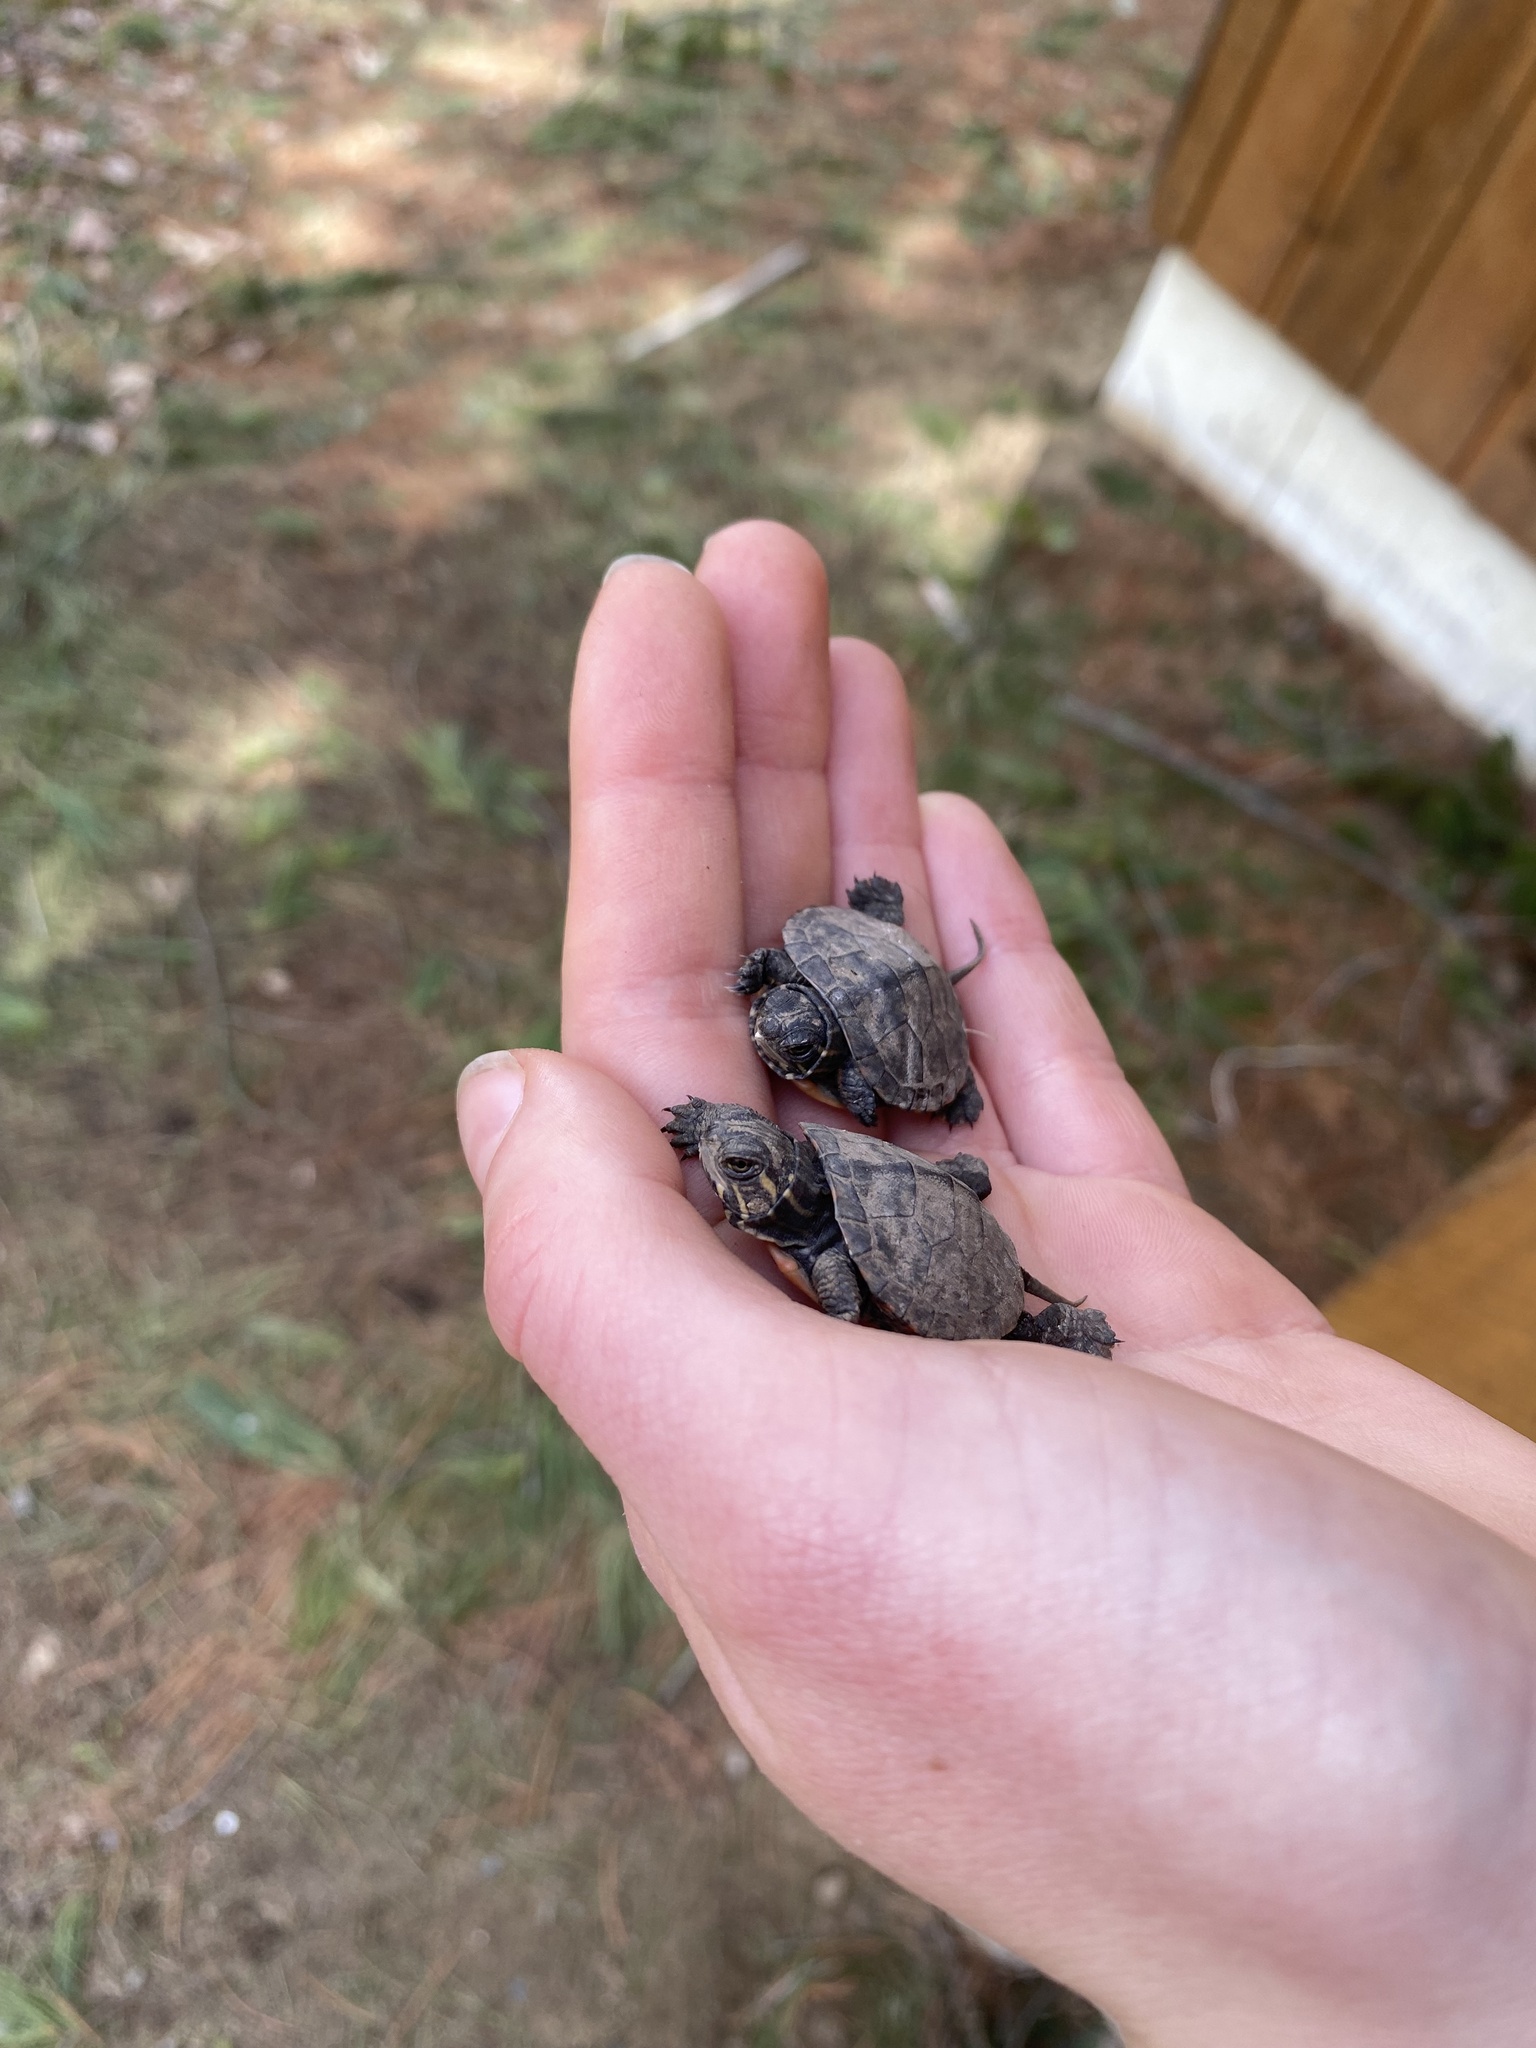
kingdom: Animalia
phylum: Chordata
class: Testudines
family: Emydidae
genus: Chrysemys
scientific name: Chrysemys picta
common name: Painted turtle
